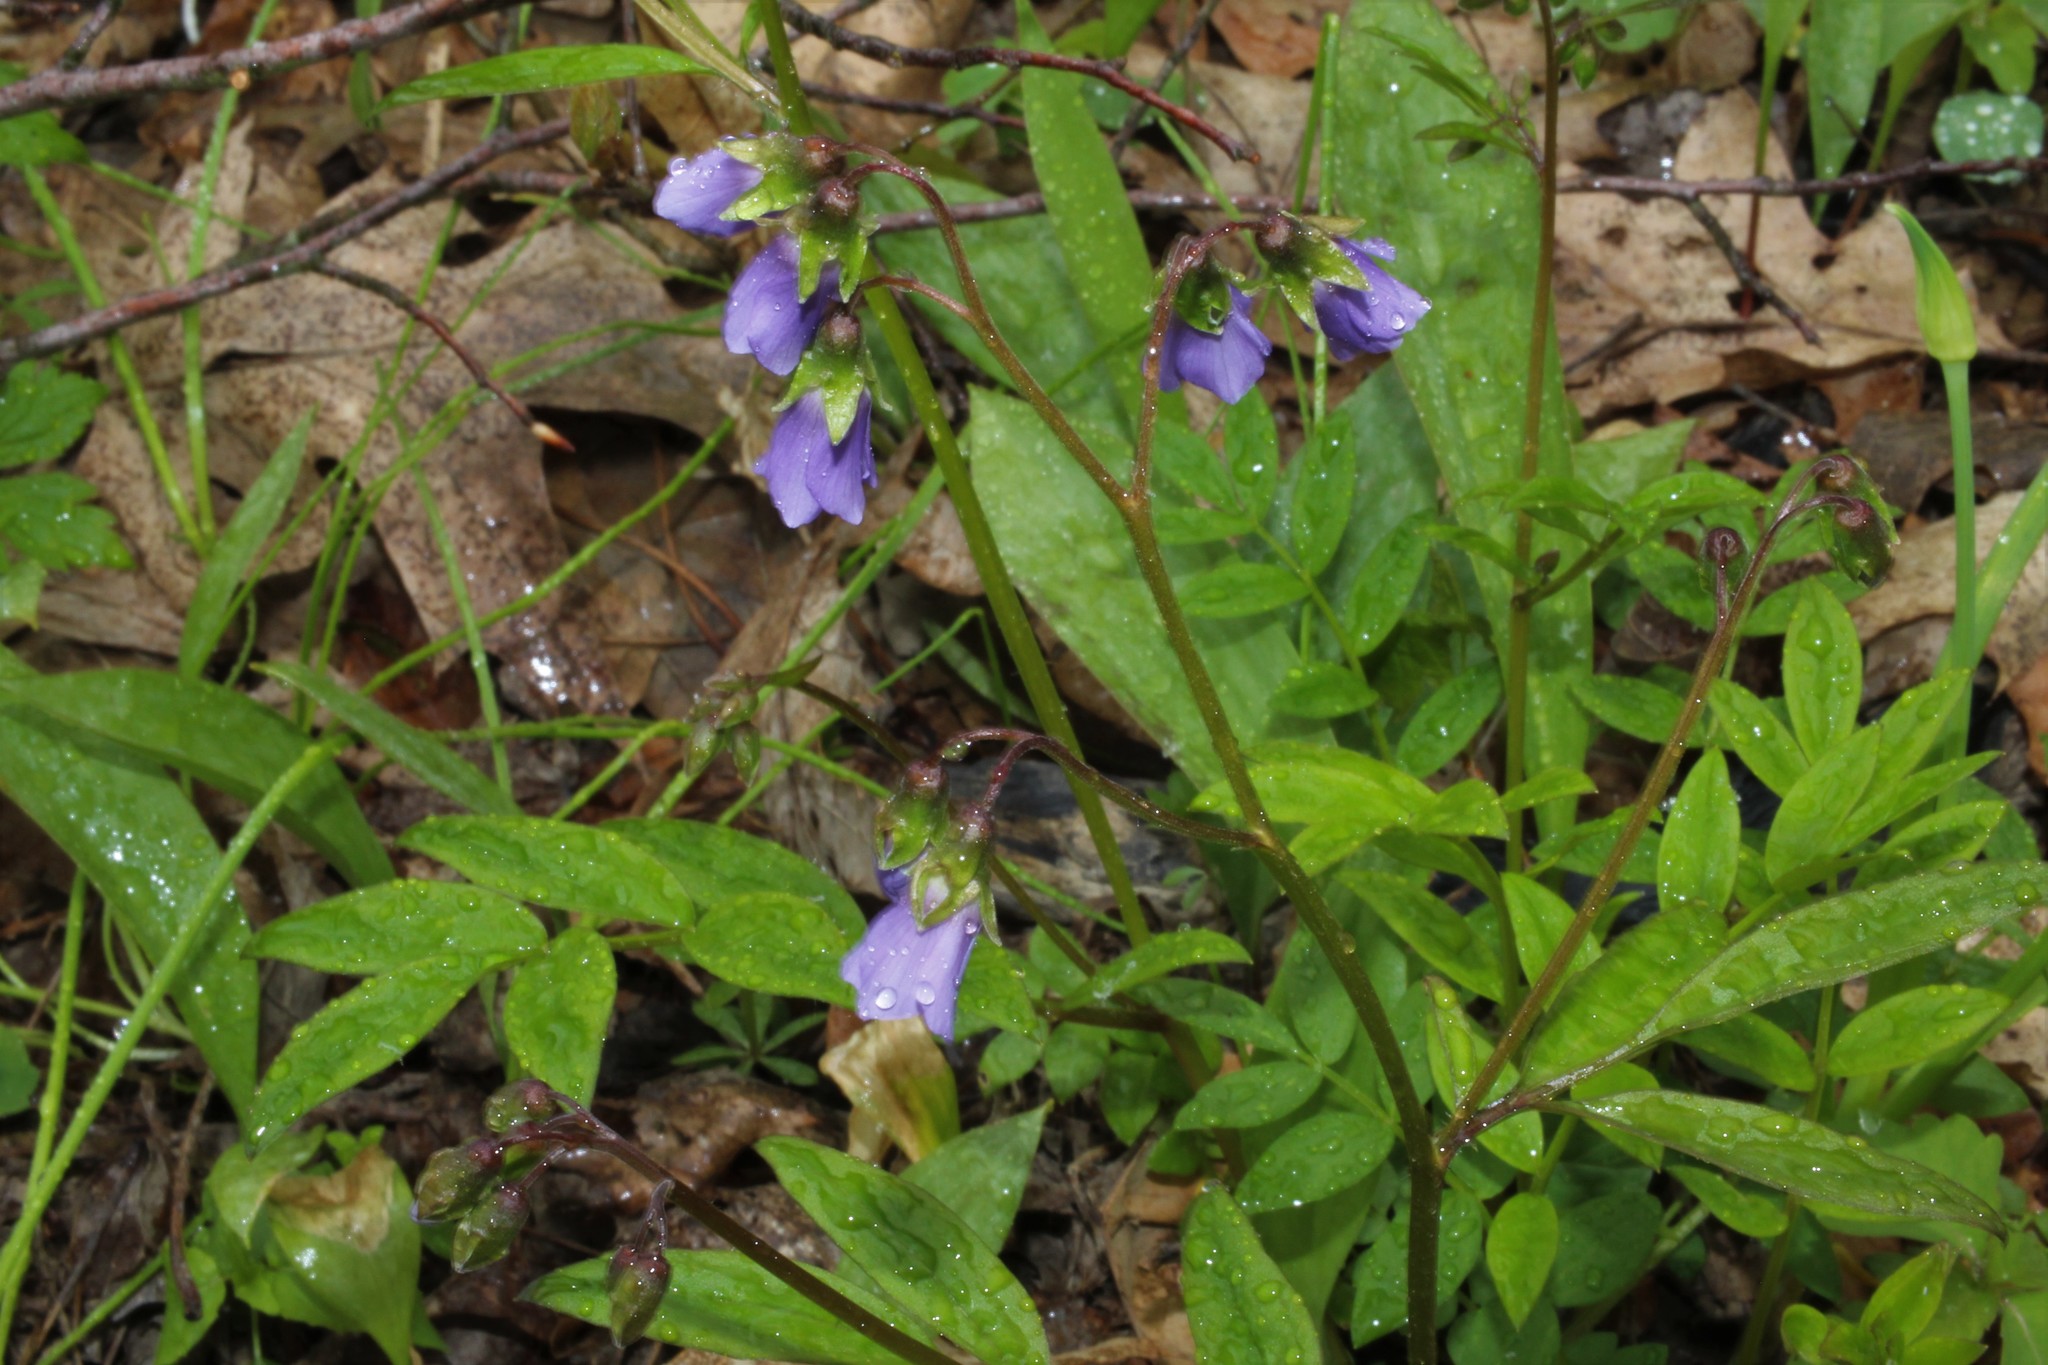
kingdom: Plantae
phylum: Tracheophyta
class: Magnoliopsida
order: Ericales
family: Polemoniaceae
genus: Polemonium
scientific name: Polemonium reptans
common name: Creeping jacob's-ladder
